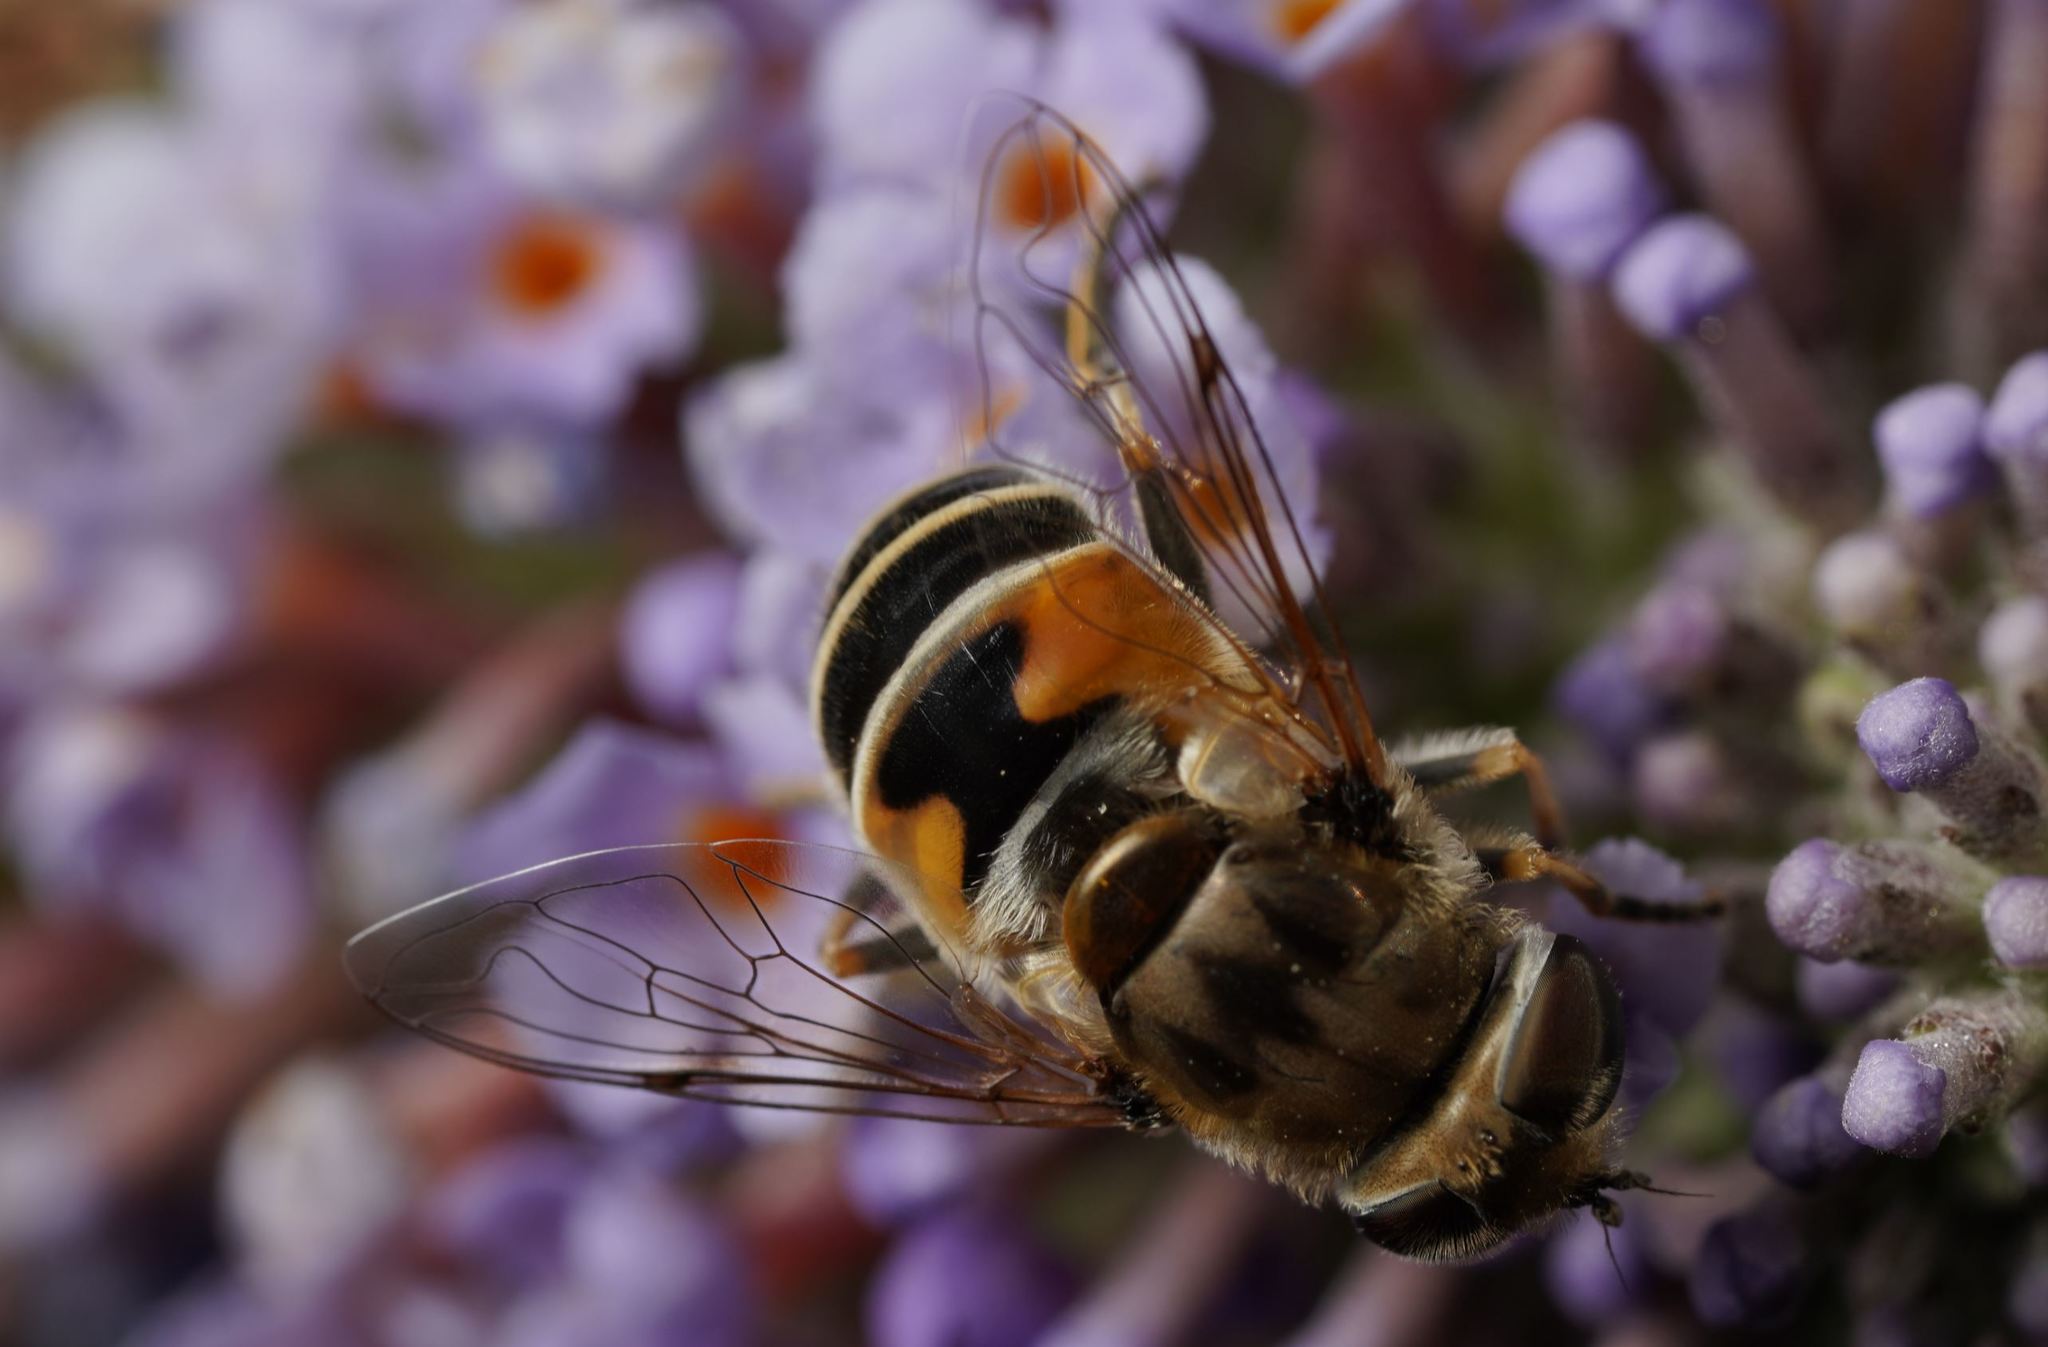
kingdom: Animalia
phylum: Arthropoda
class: Insecta
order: Diptera
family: Syrphidae
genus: Eristalis
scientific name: Eristalis arbustorum
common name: Hover fly
